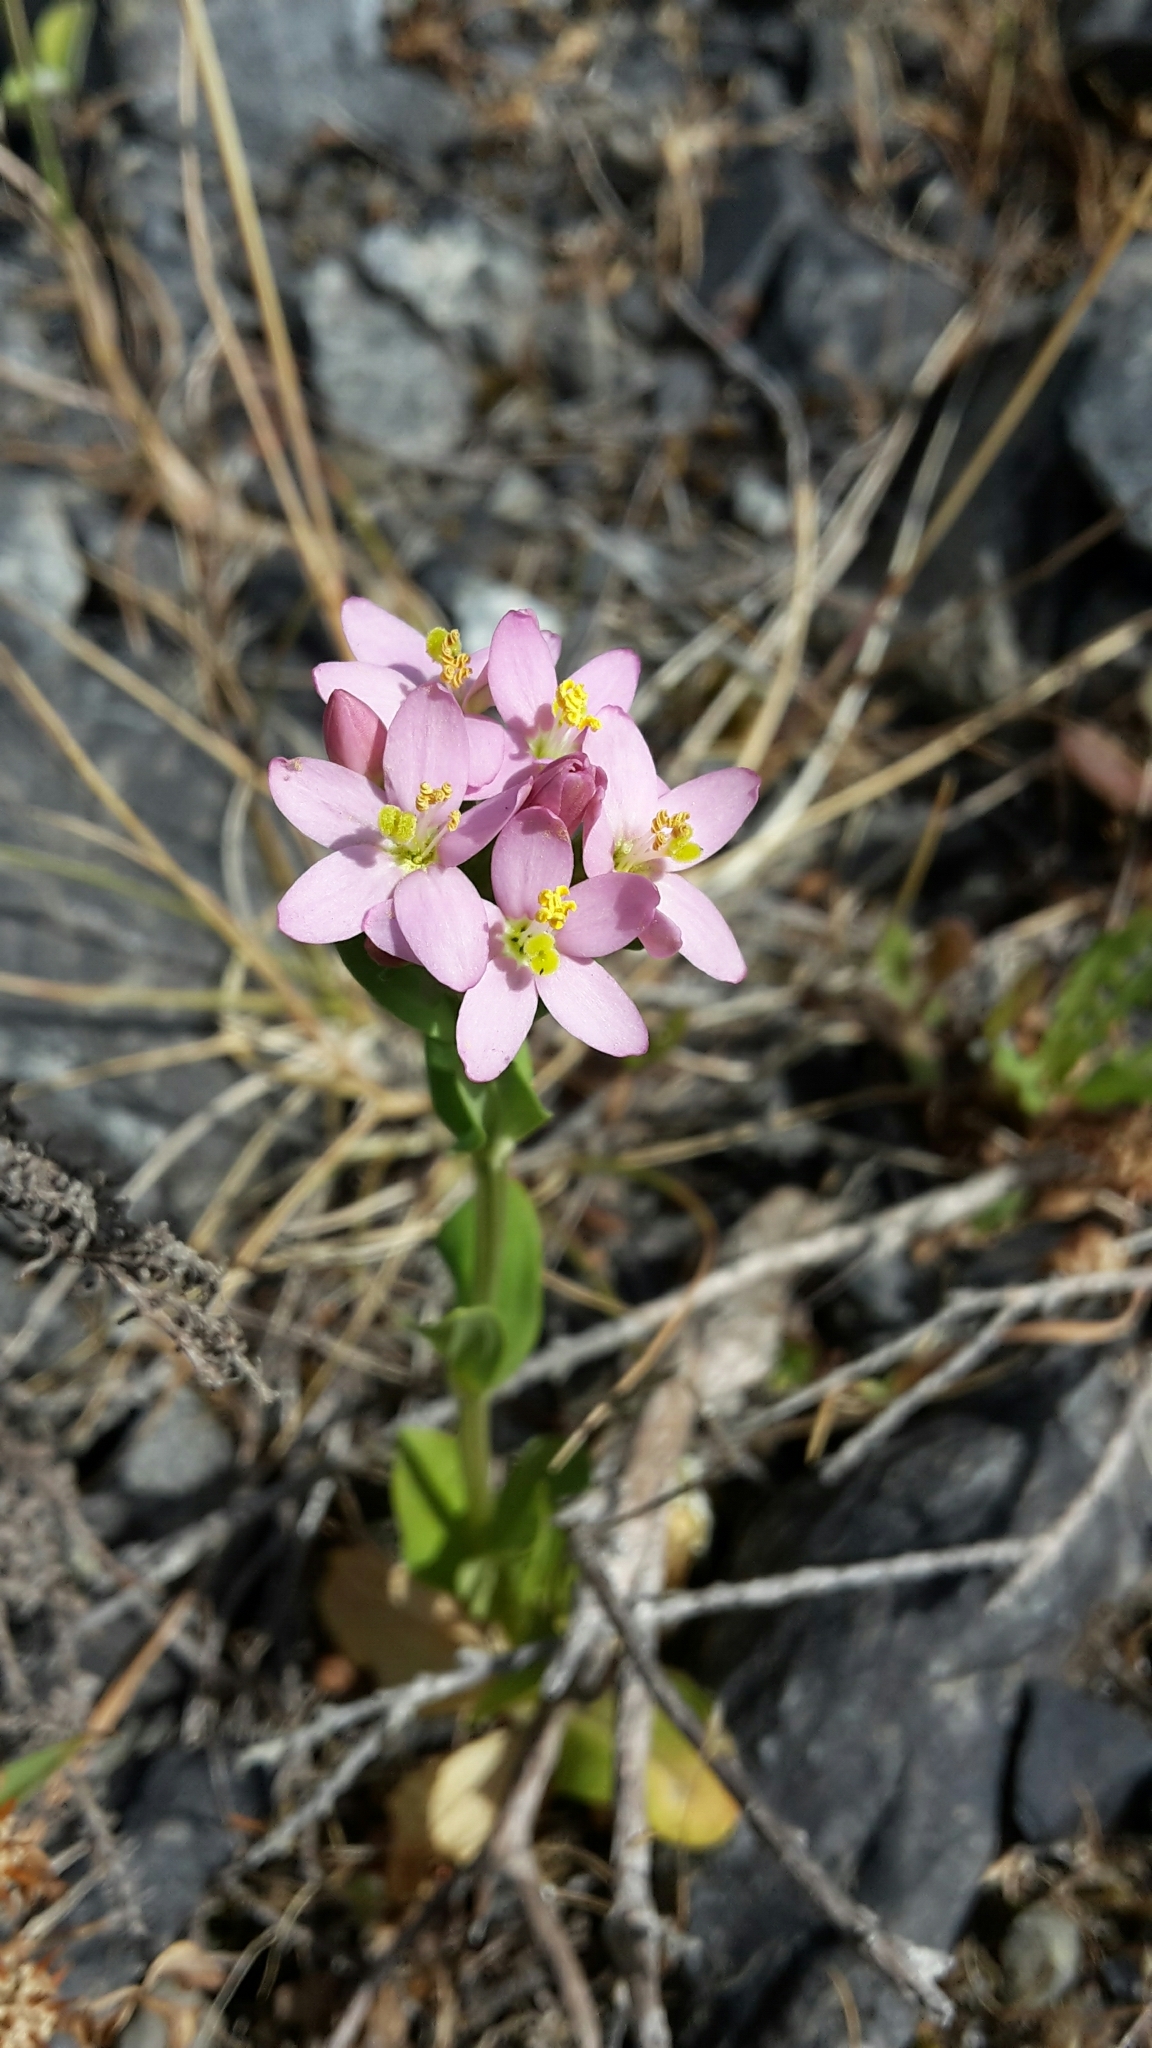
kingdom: Plantae
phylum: Tracheophyta
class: Magnoliopsida
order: Gentianales
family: Gentianaceae
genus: Centaurium
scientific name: Centaurium erythraea
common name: Common centaury
